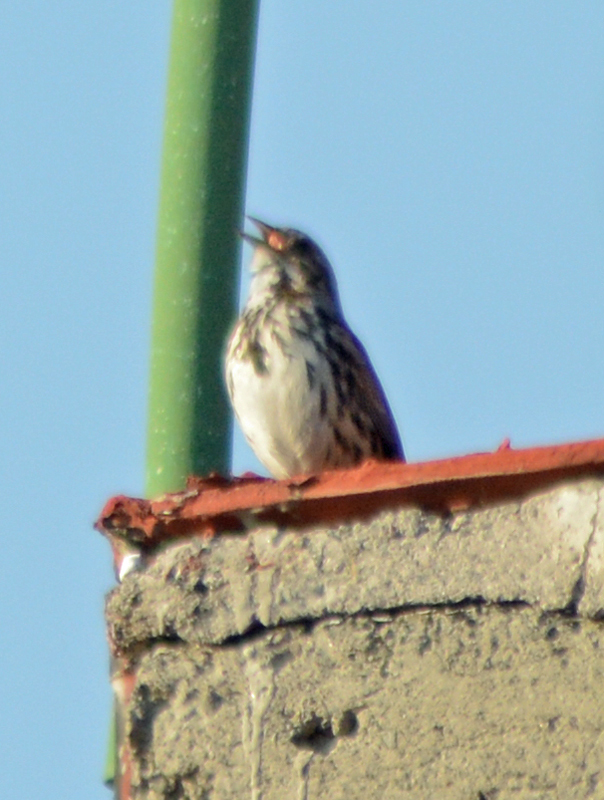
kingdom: Animalia
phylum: Chordata
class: Aves
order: Passeriformes
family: Passerellidae
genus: Melospiza
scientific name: Melospiza melodia
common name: Song sparrow
